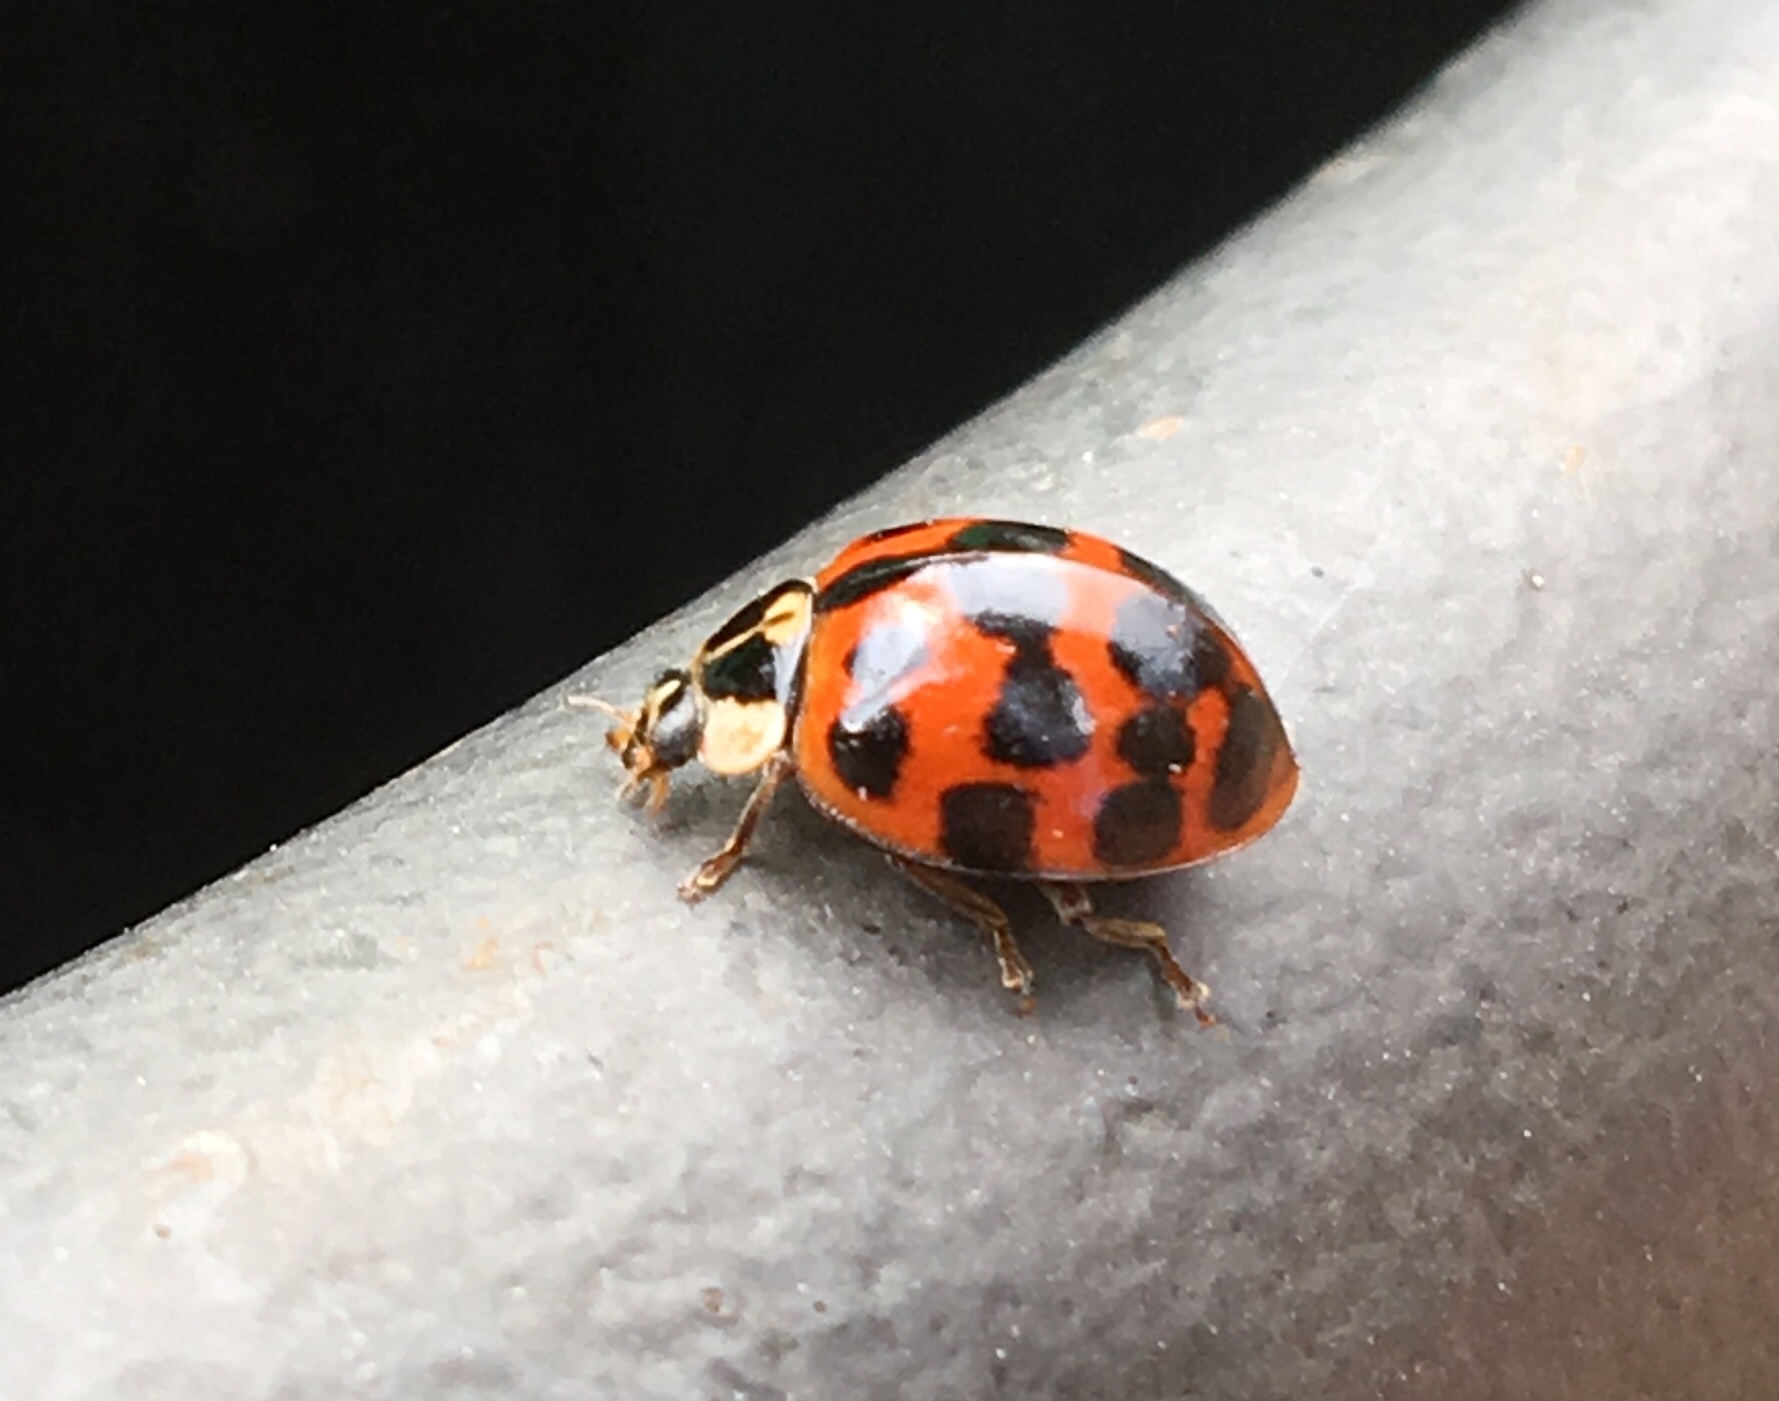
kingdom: Animalia
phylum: Arthropoda
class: Insecta
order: Coleoptera
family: Coccinellidae
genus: Harmonia
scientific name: Harmonia axyridis
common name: Harlequin ladybird
